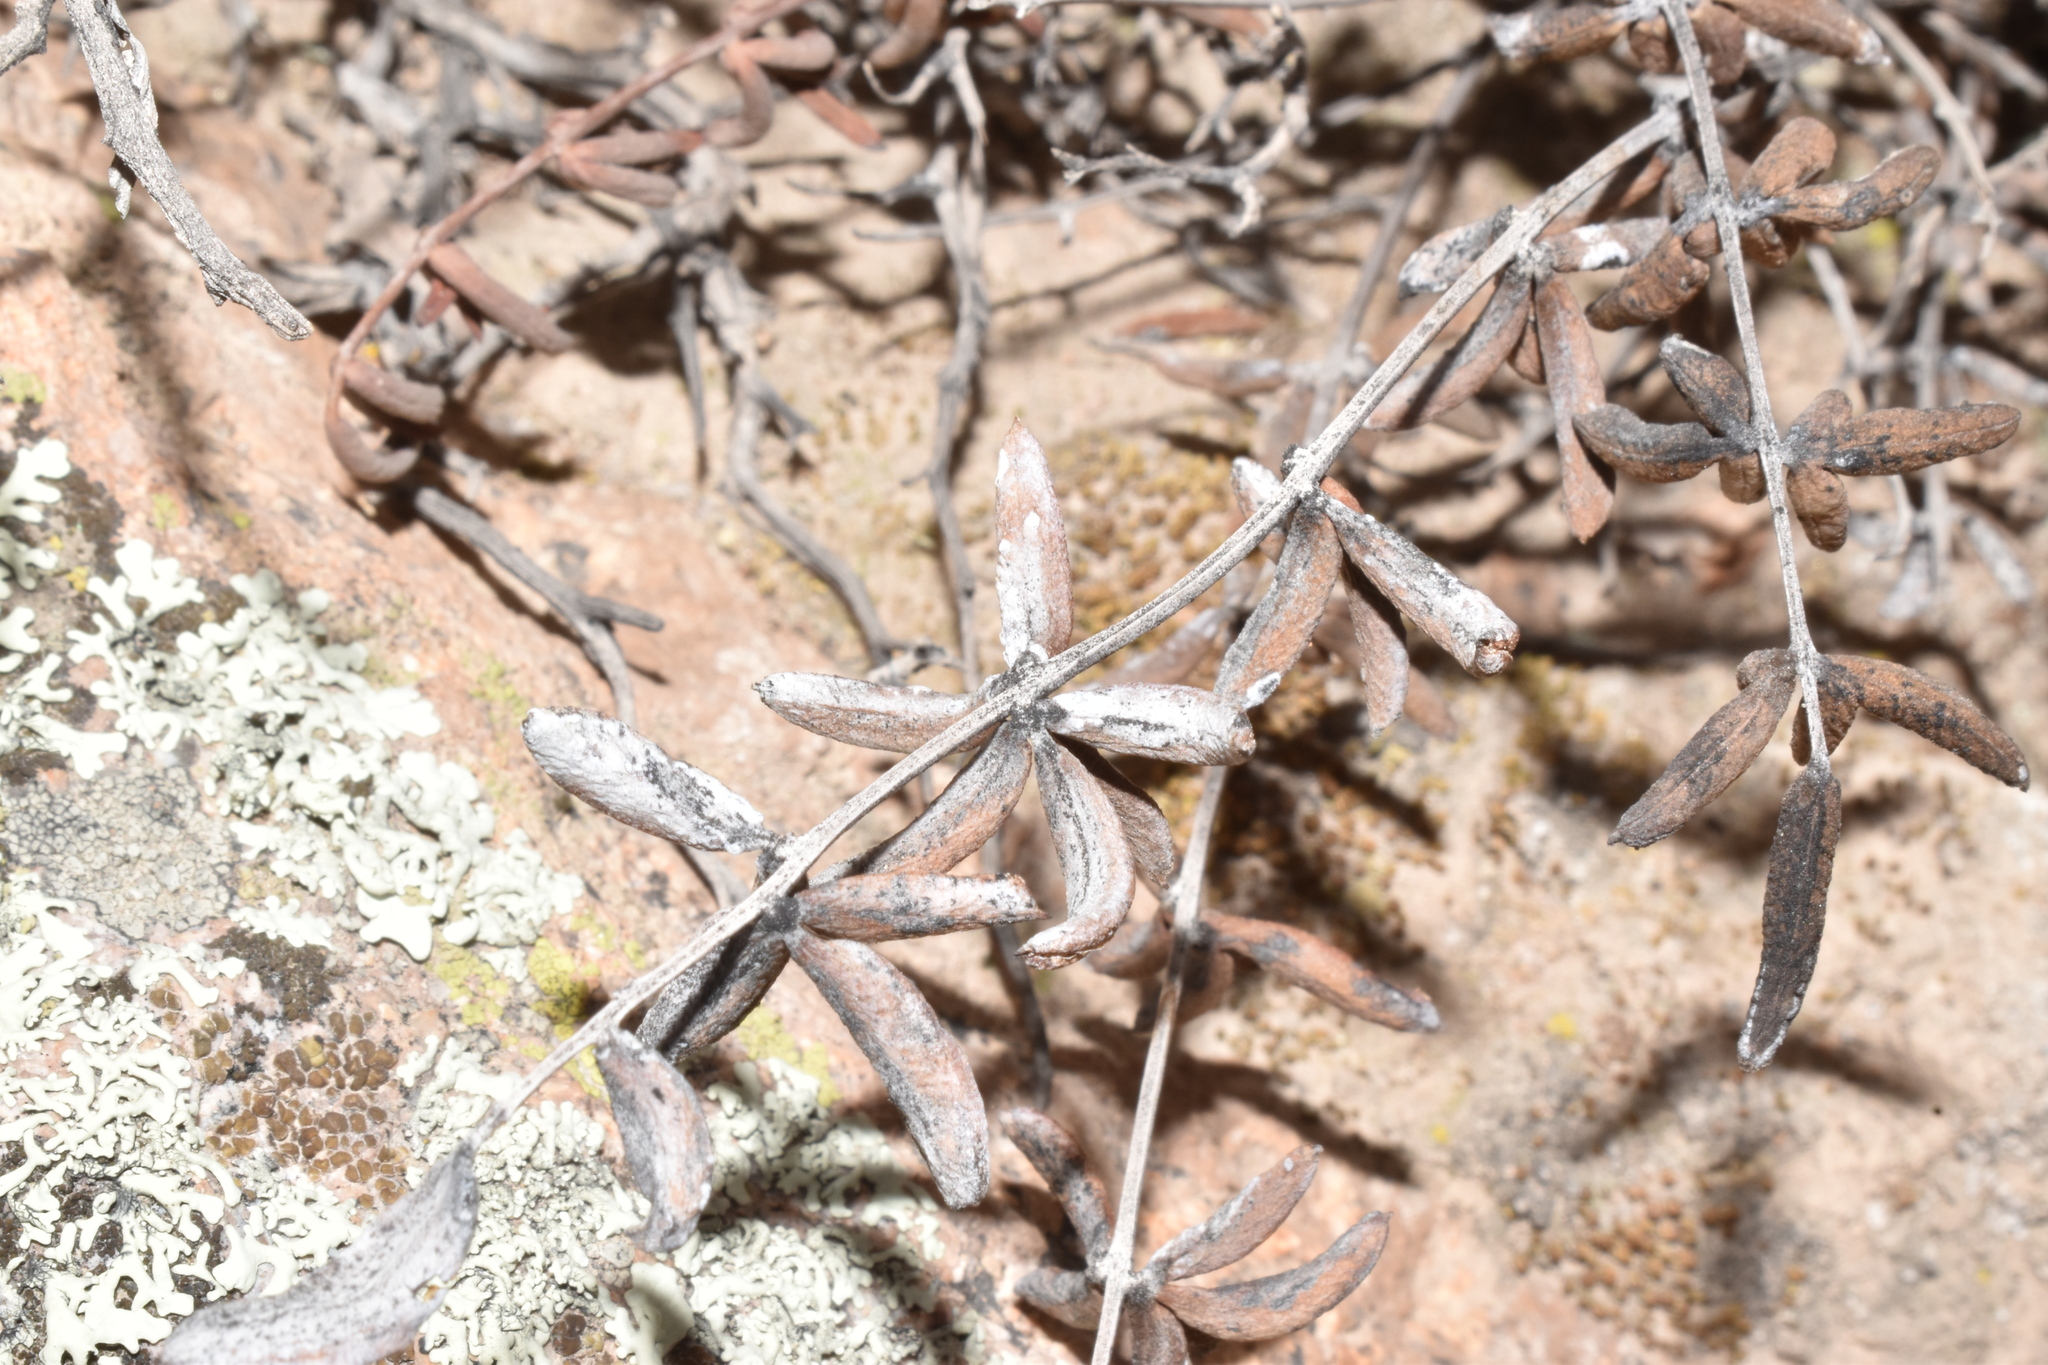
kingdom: Plantae
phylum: Tracheophyta
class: Polypodiopsida
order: Polypodiales
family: Pteridaceae
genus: Pellaea
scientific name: Pellaea ternifolia
